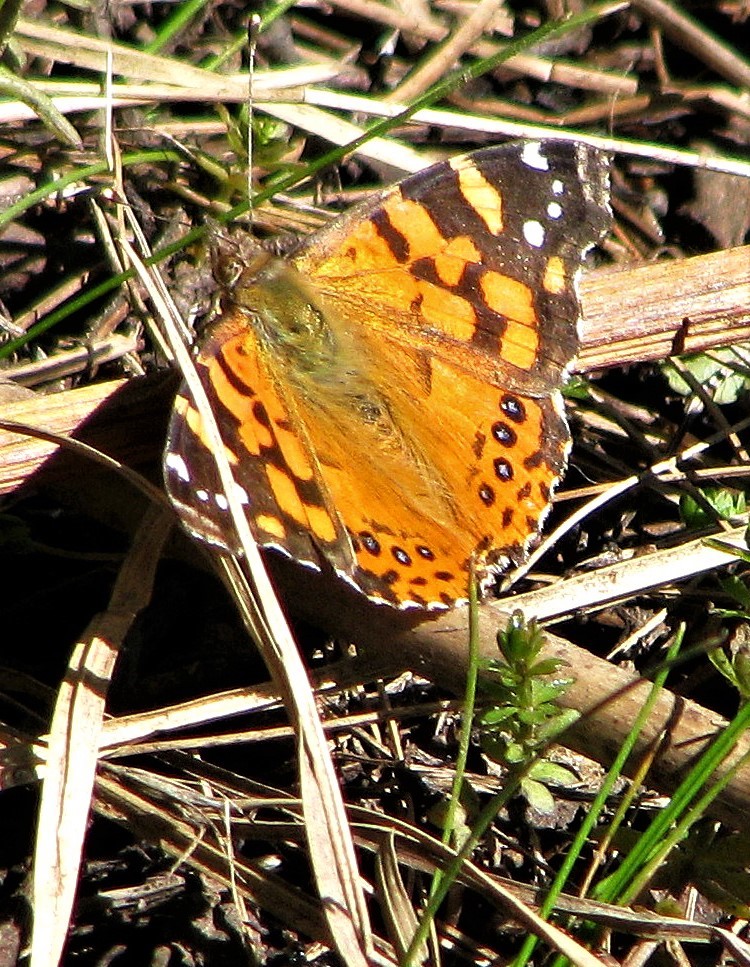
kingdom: Animalia
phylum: Arthropoda
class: Insecta
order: Lepidoptera
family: Nymphalidae
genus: Vanessa
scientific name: Vanessa carye
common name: Subtropical lady
